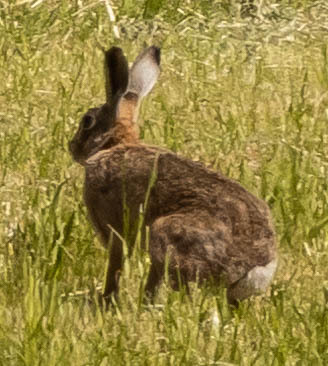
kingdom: Animalia
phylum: Chordata
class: Mammalia
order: Lagomorpha
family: Leporidae
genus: Lepus
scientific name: Lepus europaeus
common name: European hare
